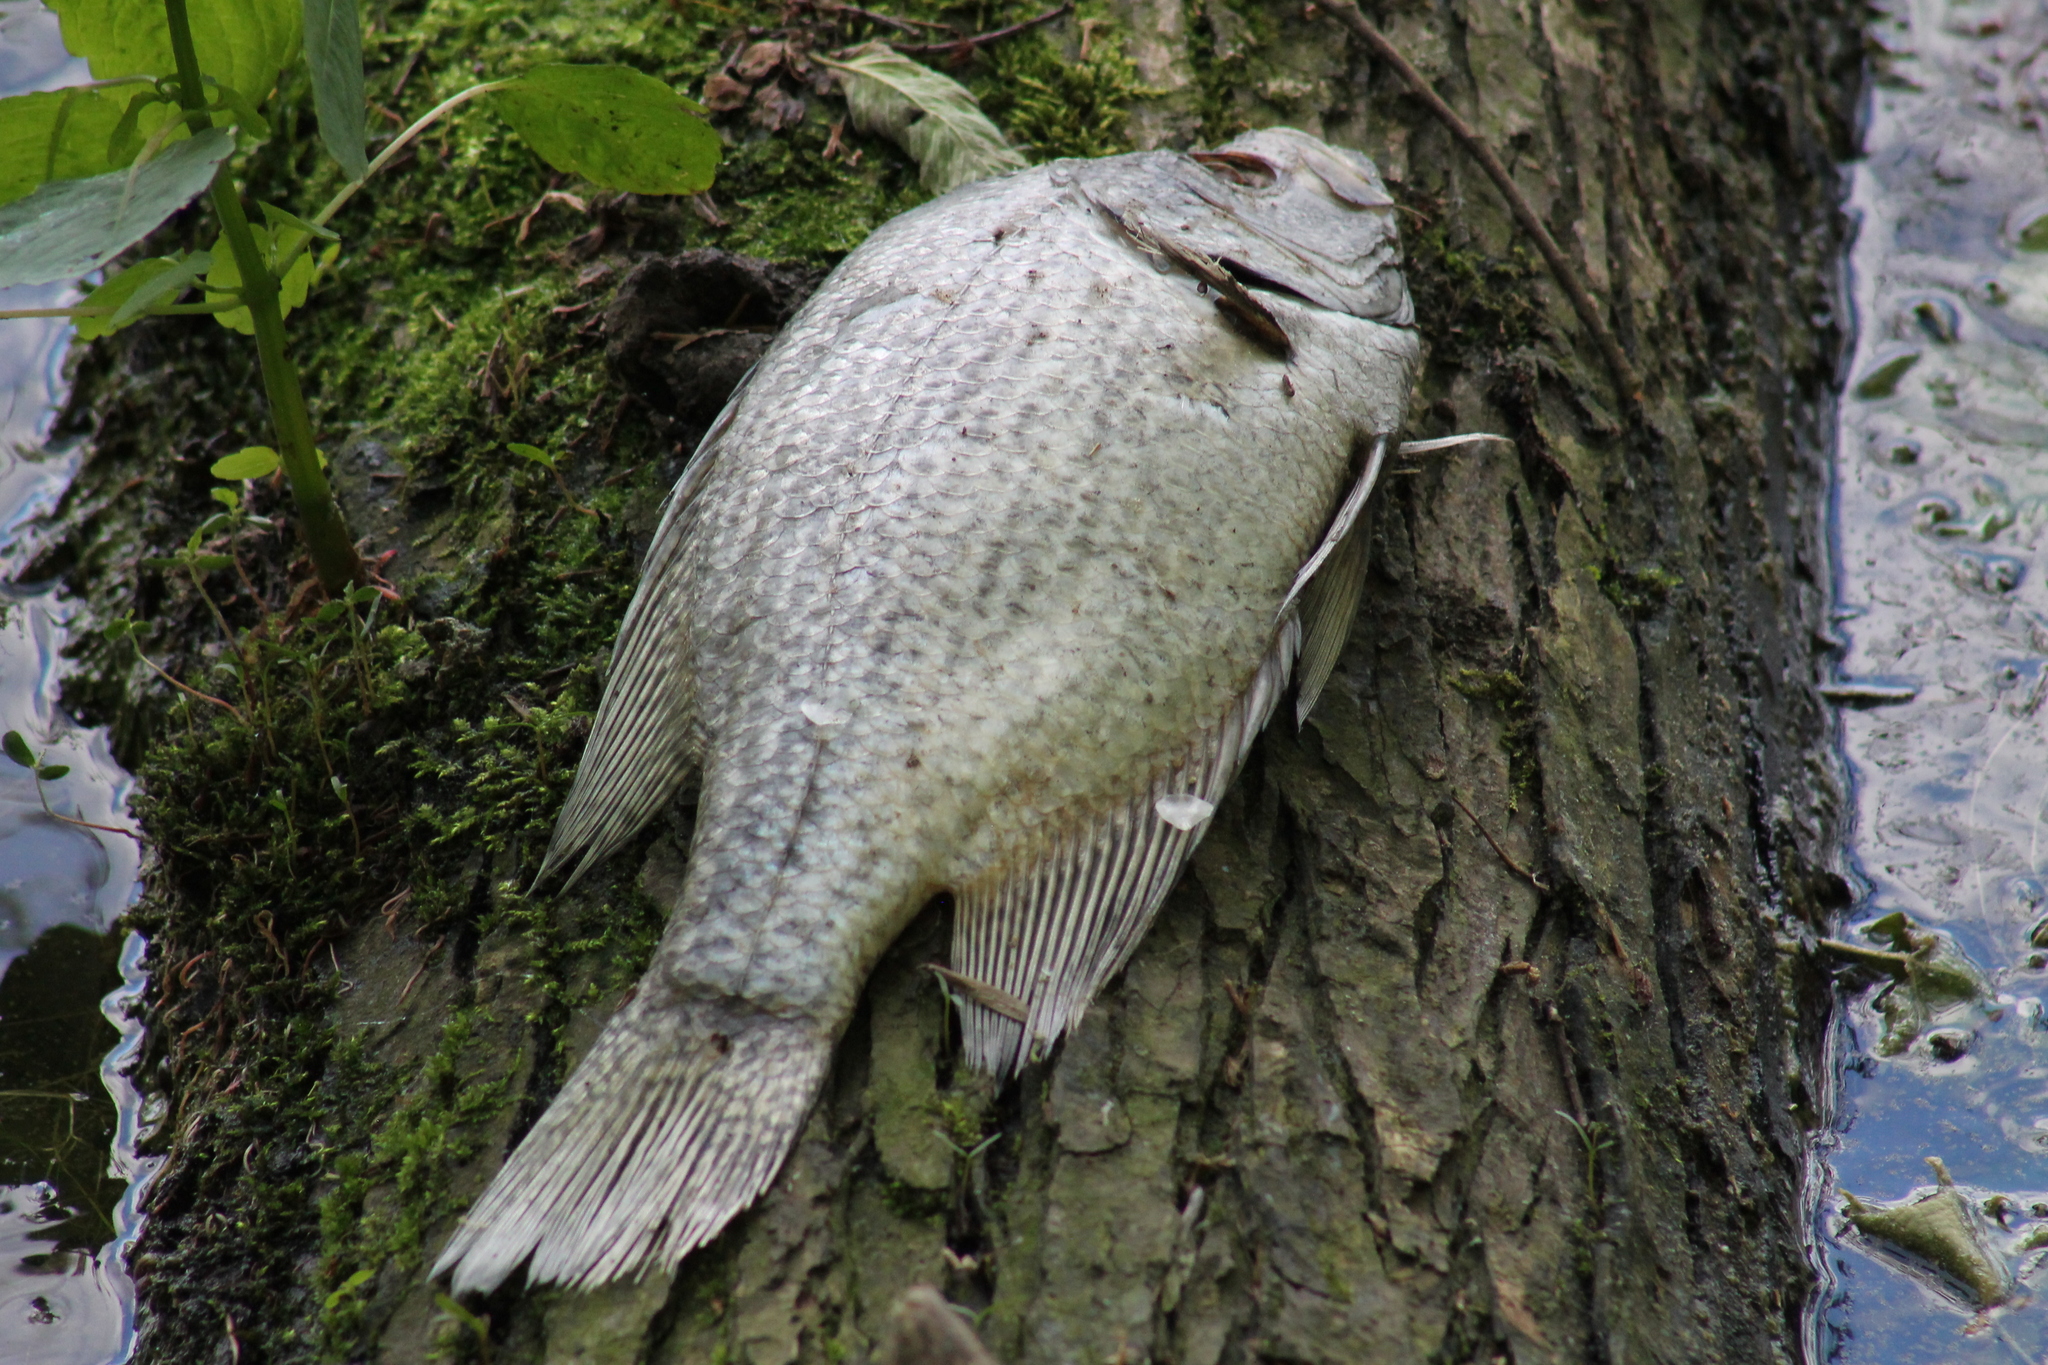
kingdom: Animalia
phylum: Chordata
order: Perciformes
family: Centrarchidae
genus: Pomoxis
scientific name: Pomoxis nigromaculatus
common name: Black crappie
